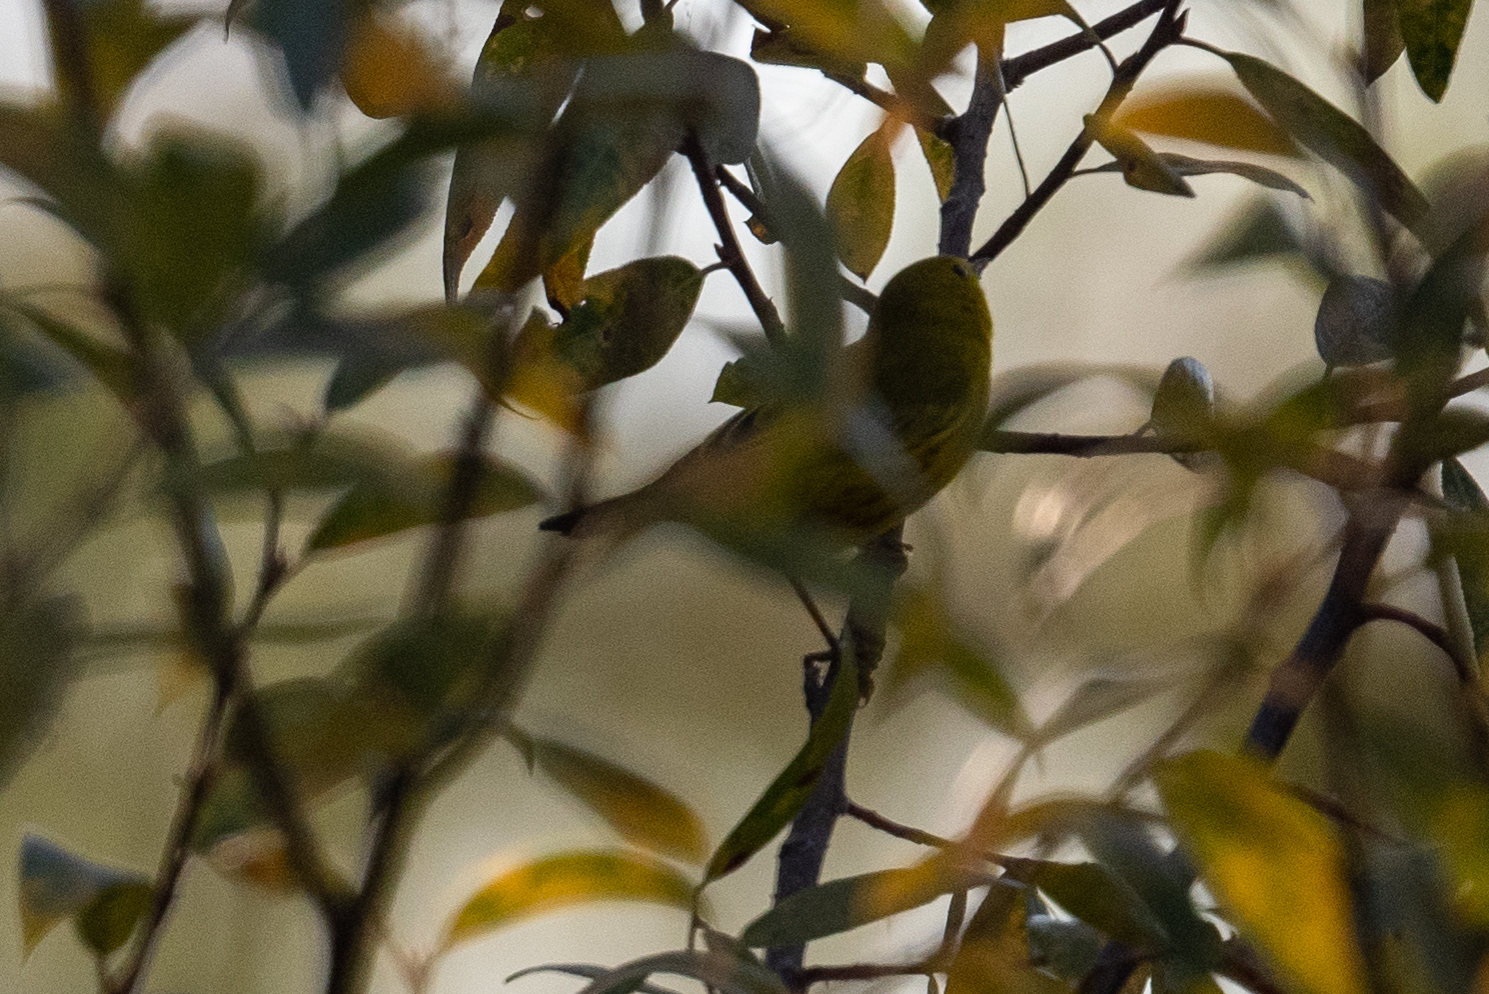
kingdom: Animalia
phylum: Chordata
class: Aves
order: Passeriformes
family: Parulidae
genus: Setophaga
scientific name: Setophaga petechia
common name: Yellow warbler
